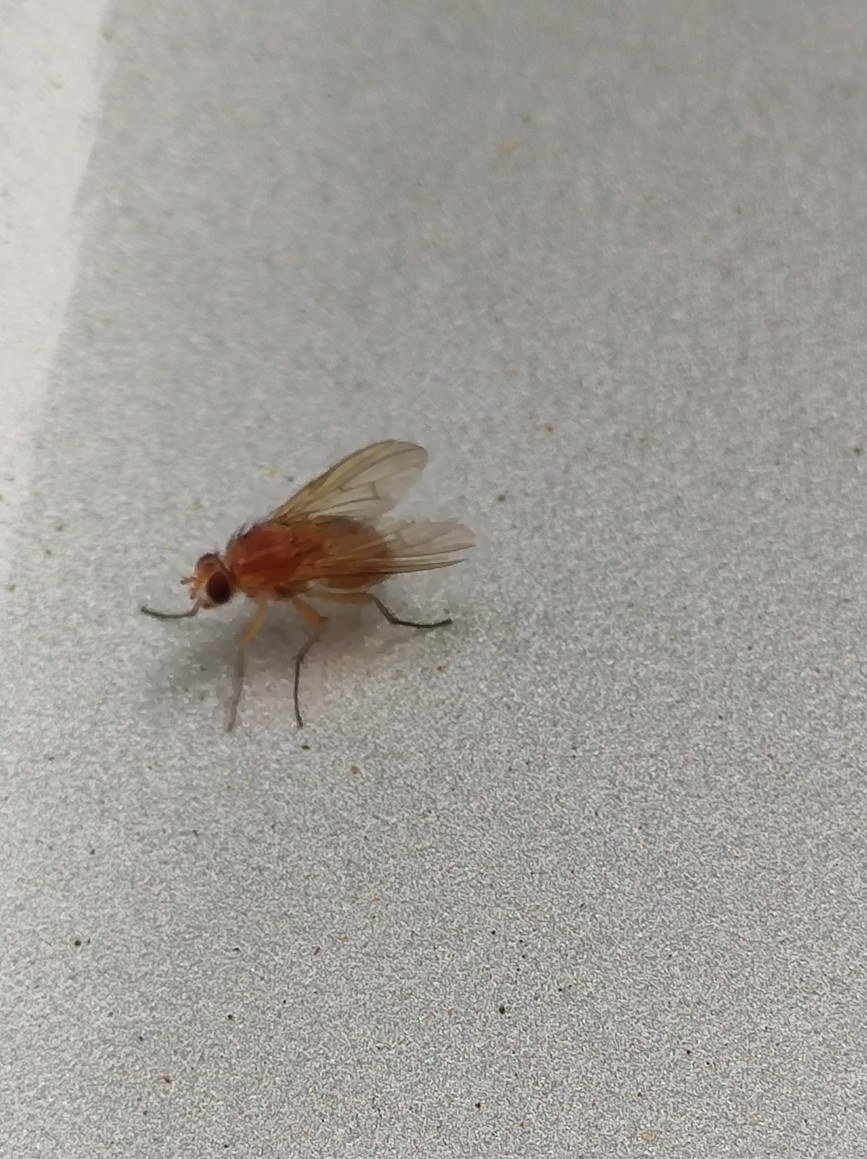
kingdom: Animalia
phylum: Arthropoda
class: Insecta
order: Diptera
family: Muscidae
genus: Phaonia
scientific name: Phaonia pallida
